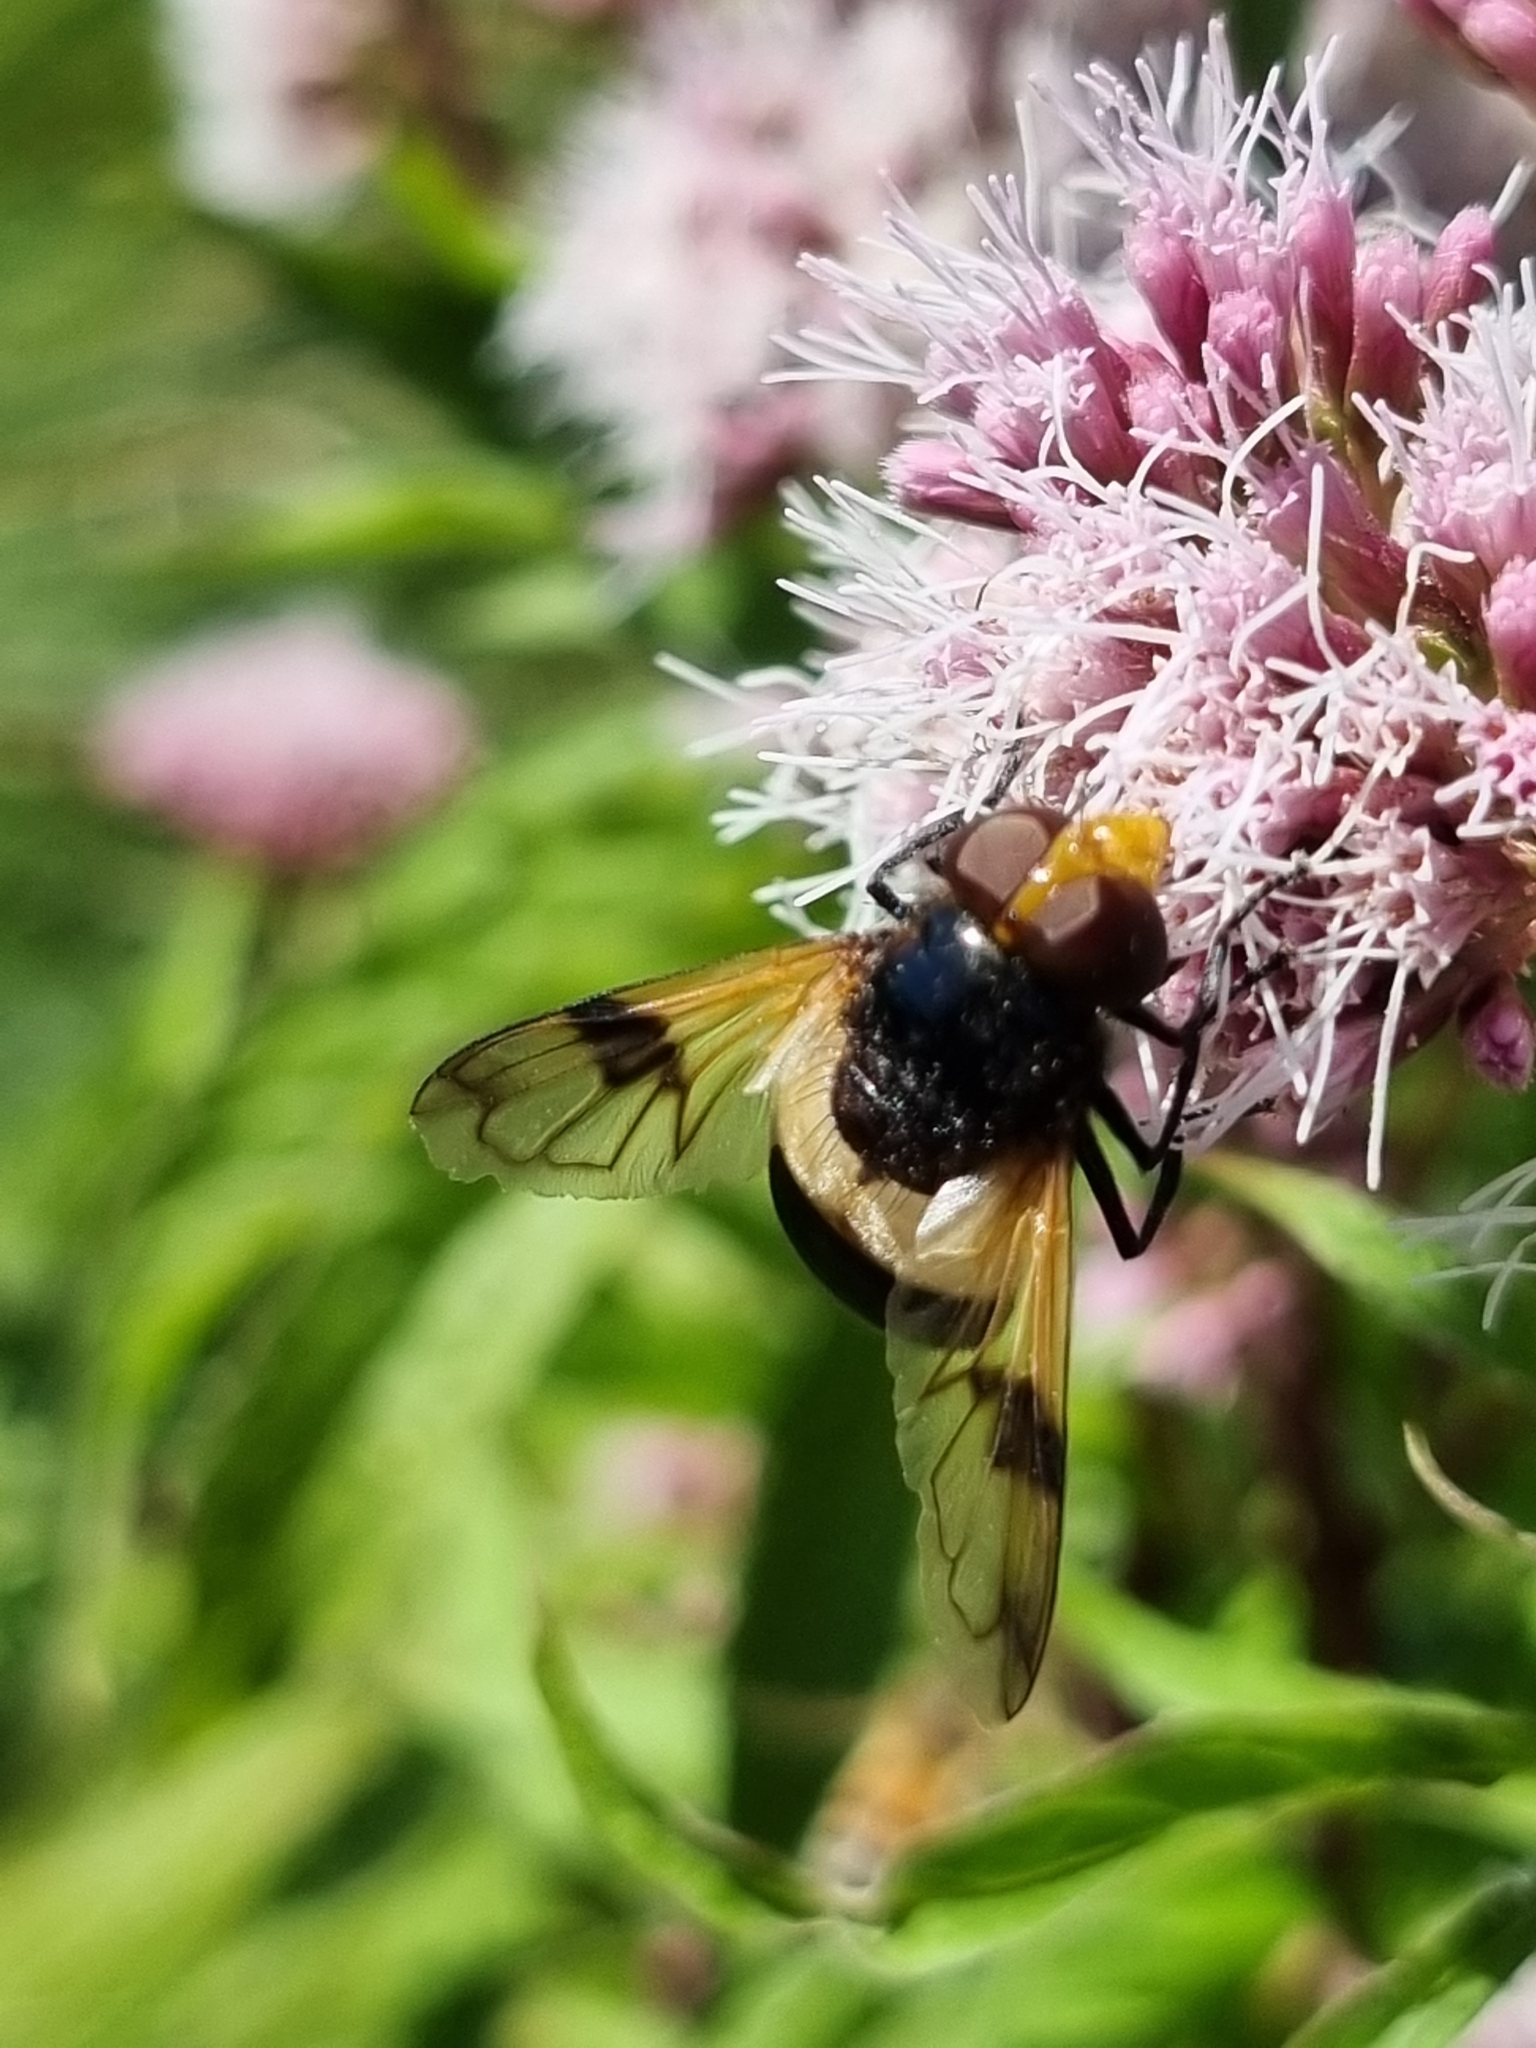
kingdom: Animalia
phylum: Arthropoda
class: Insecta
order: Diptera
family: Syrphidae
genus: Volucella
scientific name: Volucella pellucens
